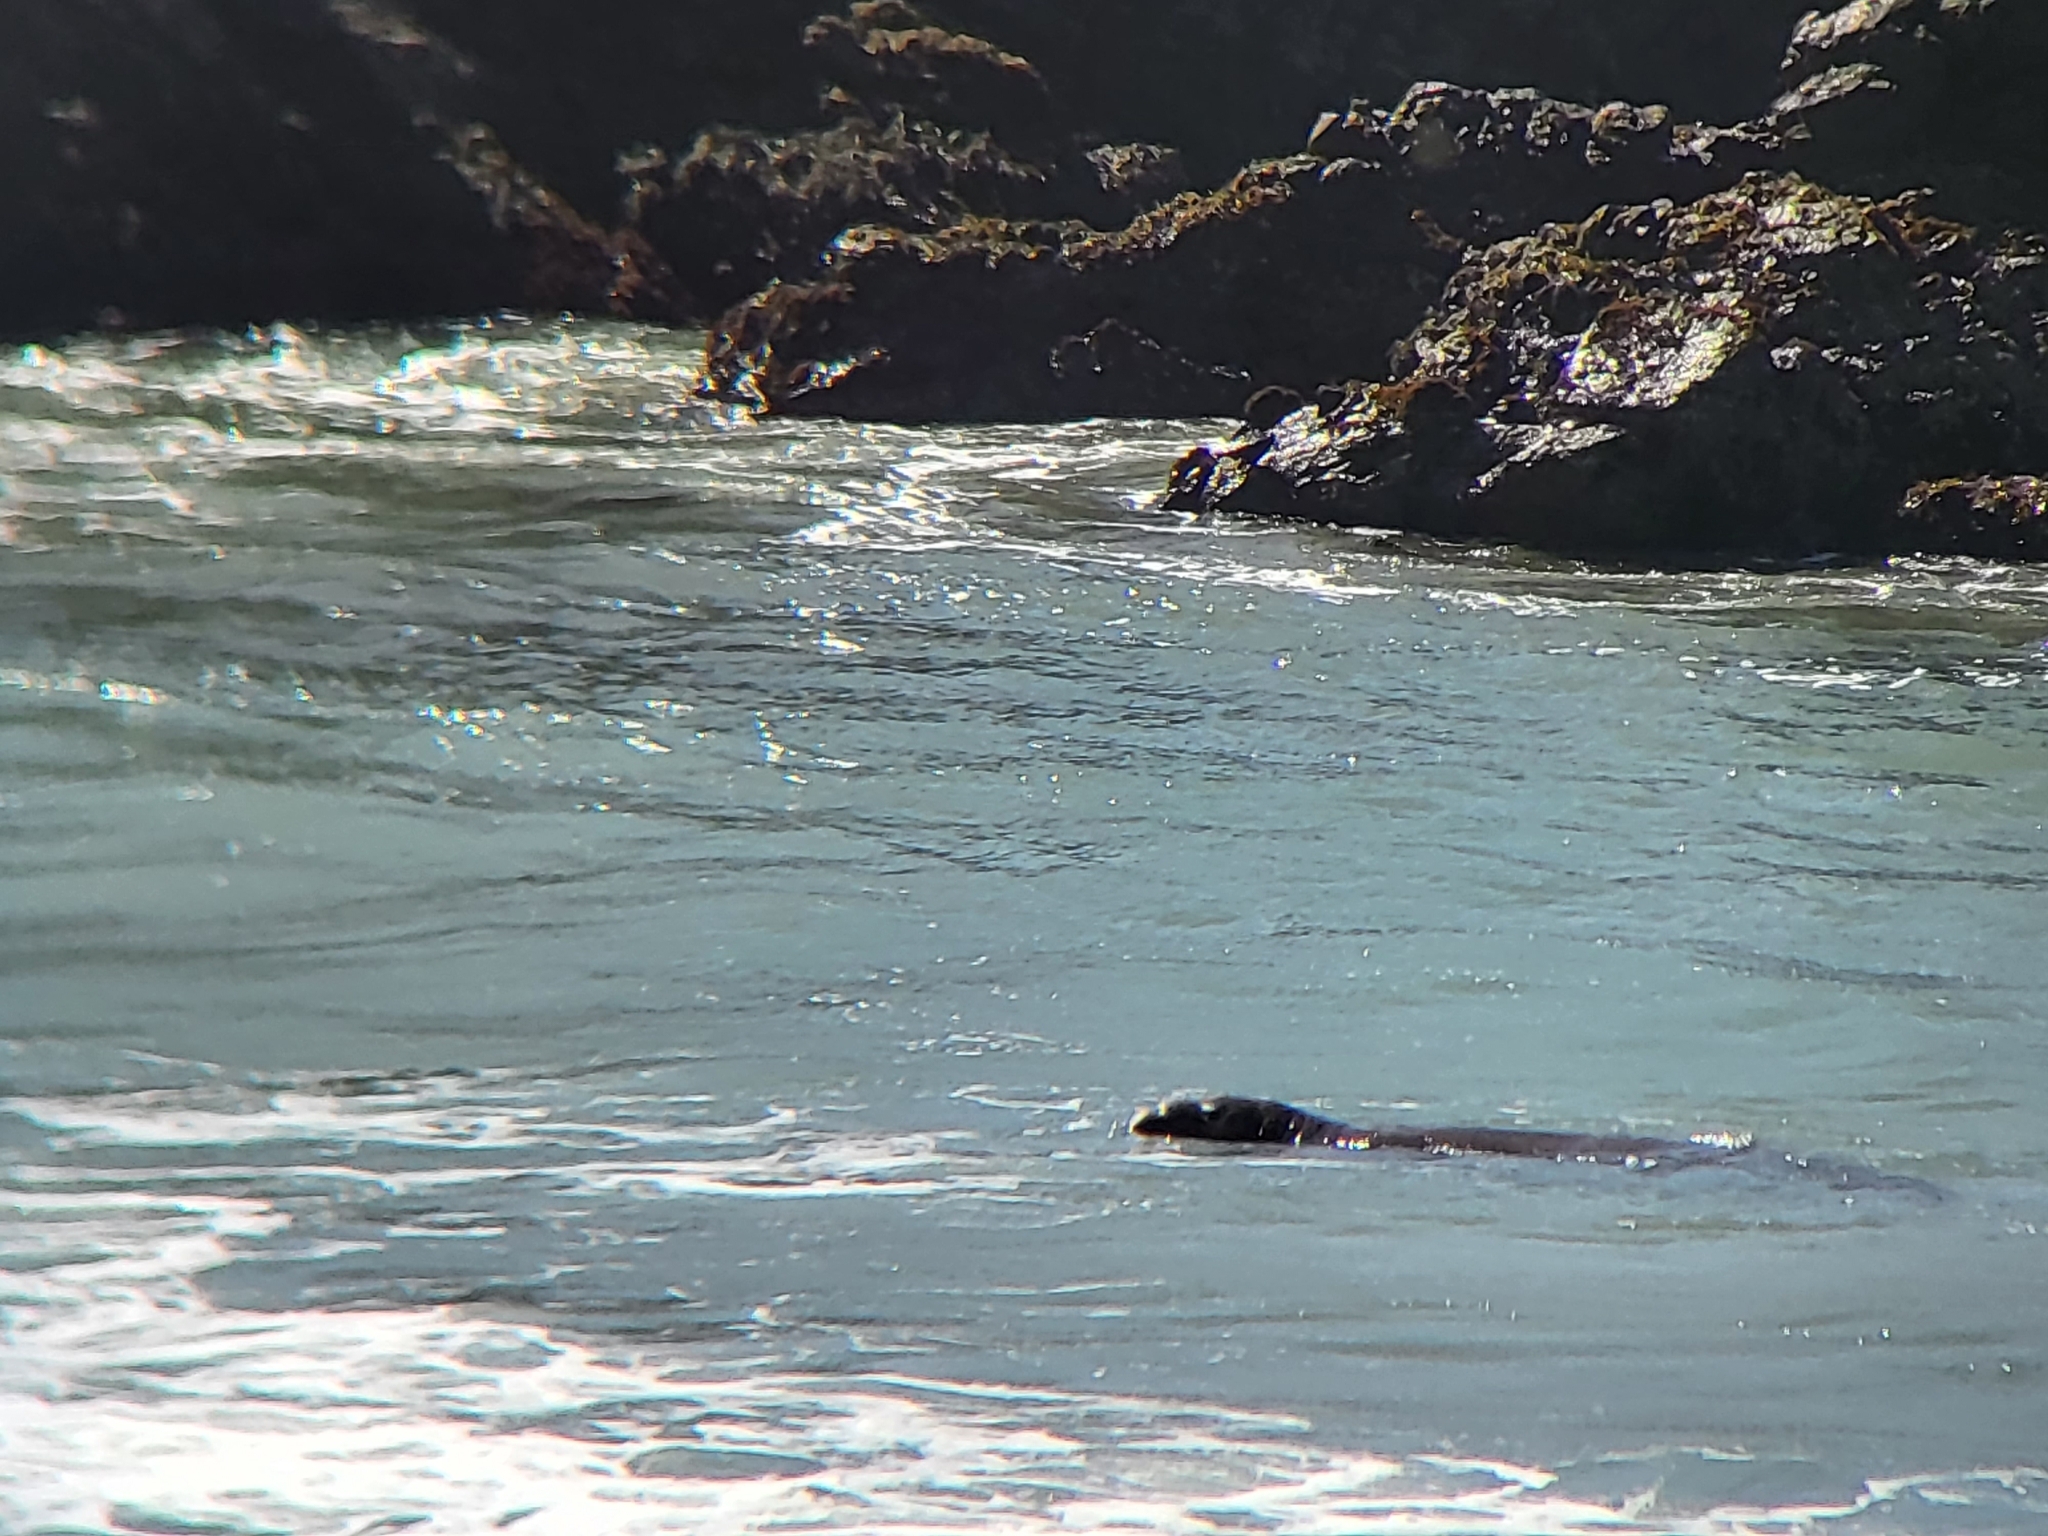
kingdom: Animalia
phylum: Chordata
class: Mammalia
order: Carnivora
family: Phocidae
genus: Mirounga
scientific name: Mirounga angustirostris
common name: Northern elephant seal
